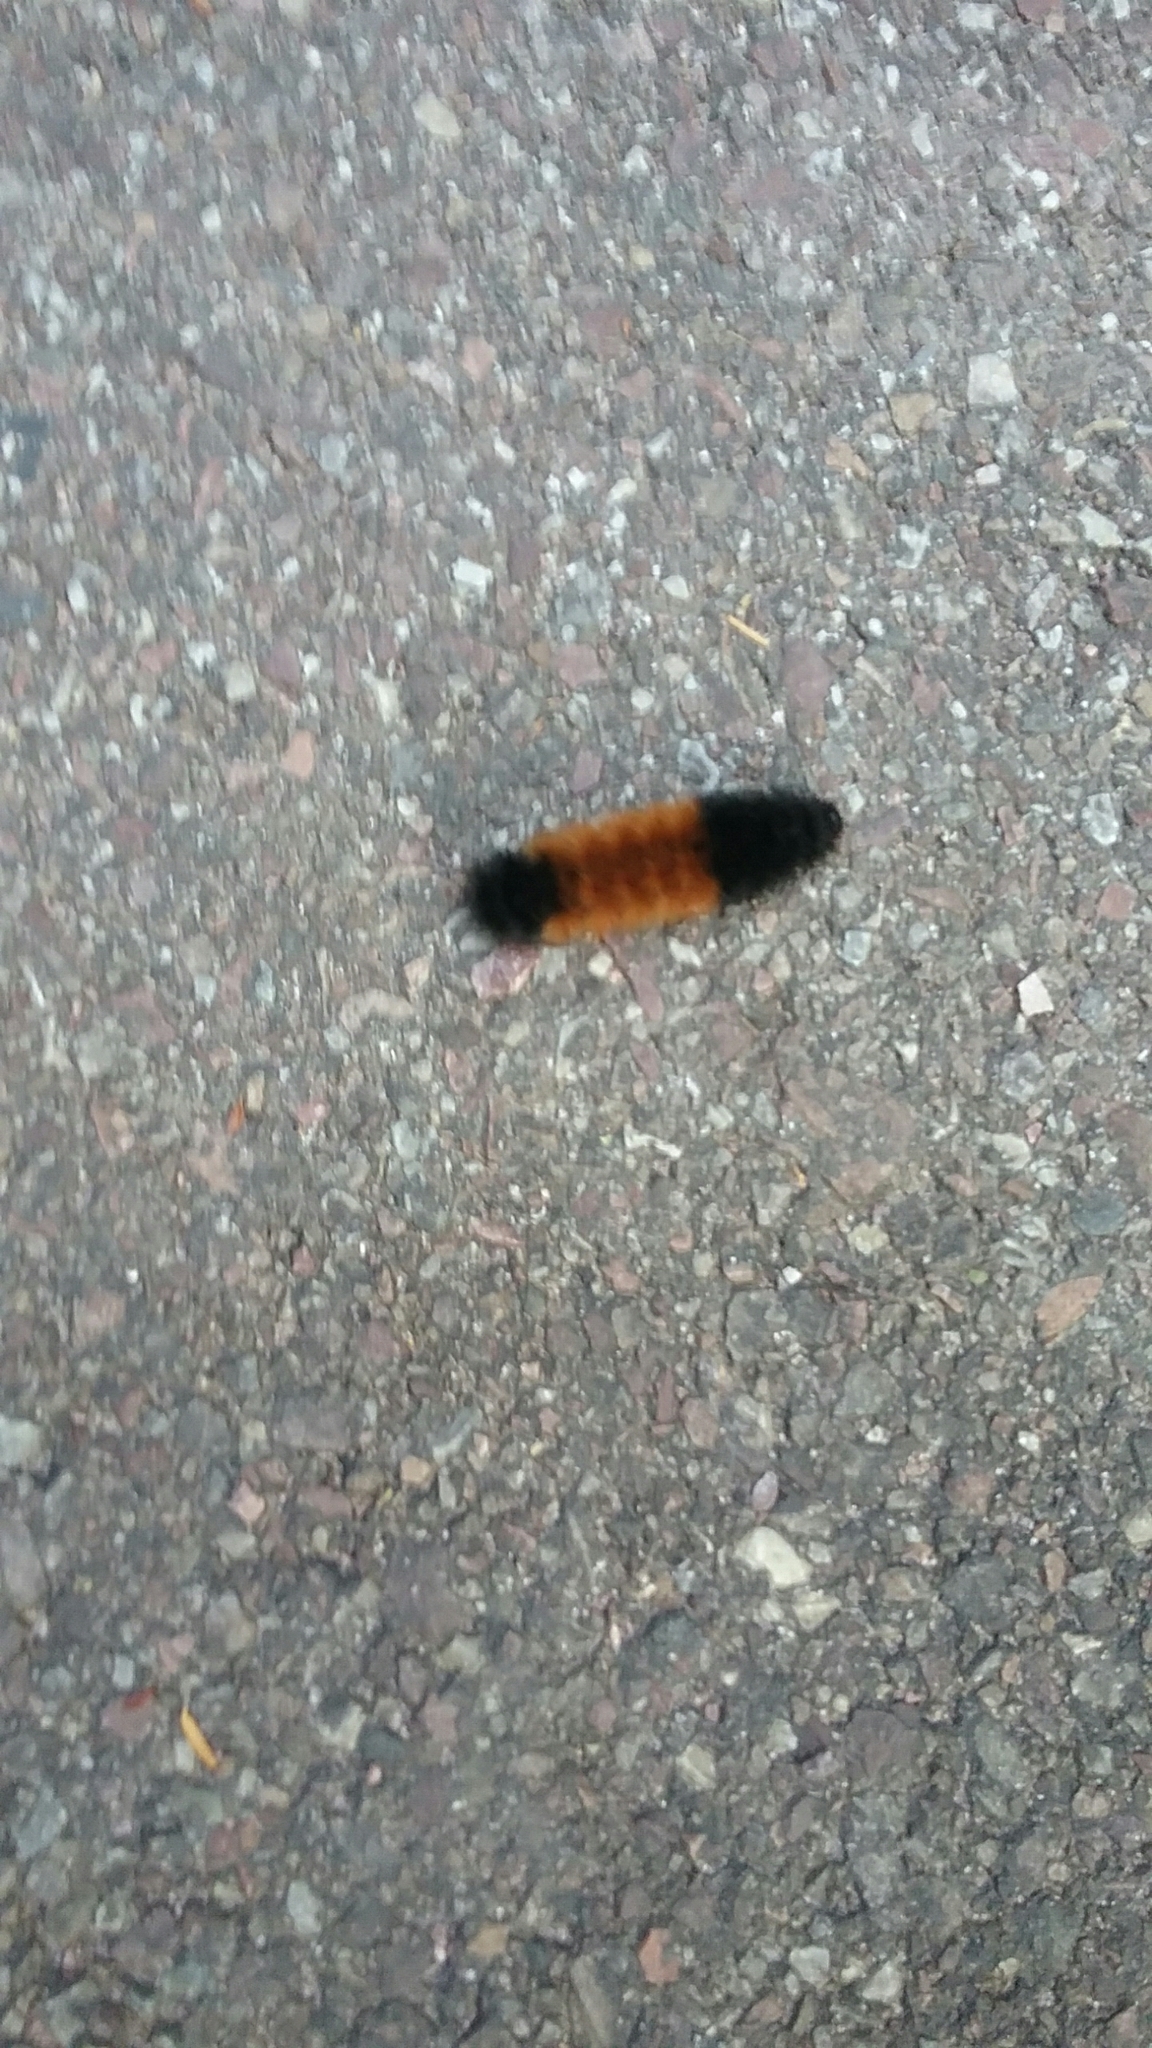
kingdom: Animalia
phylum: Arthropoda
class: Insecta
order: Lepidoptera
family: Erebidae
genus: Pyrrharctia
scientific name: Pyrrharctia isabella
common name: Isabella tiger moth
